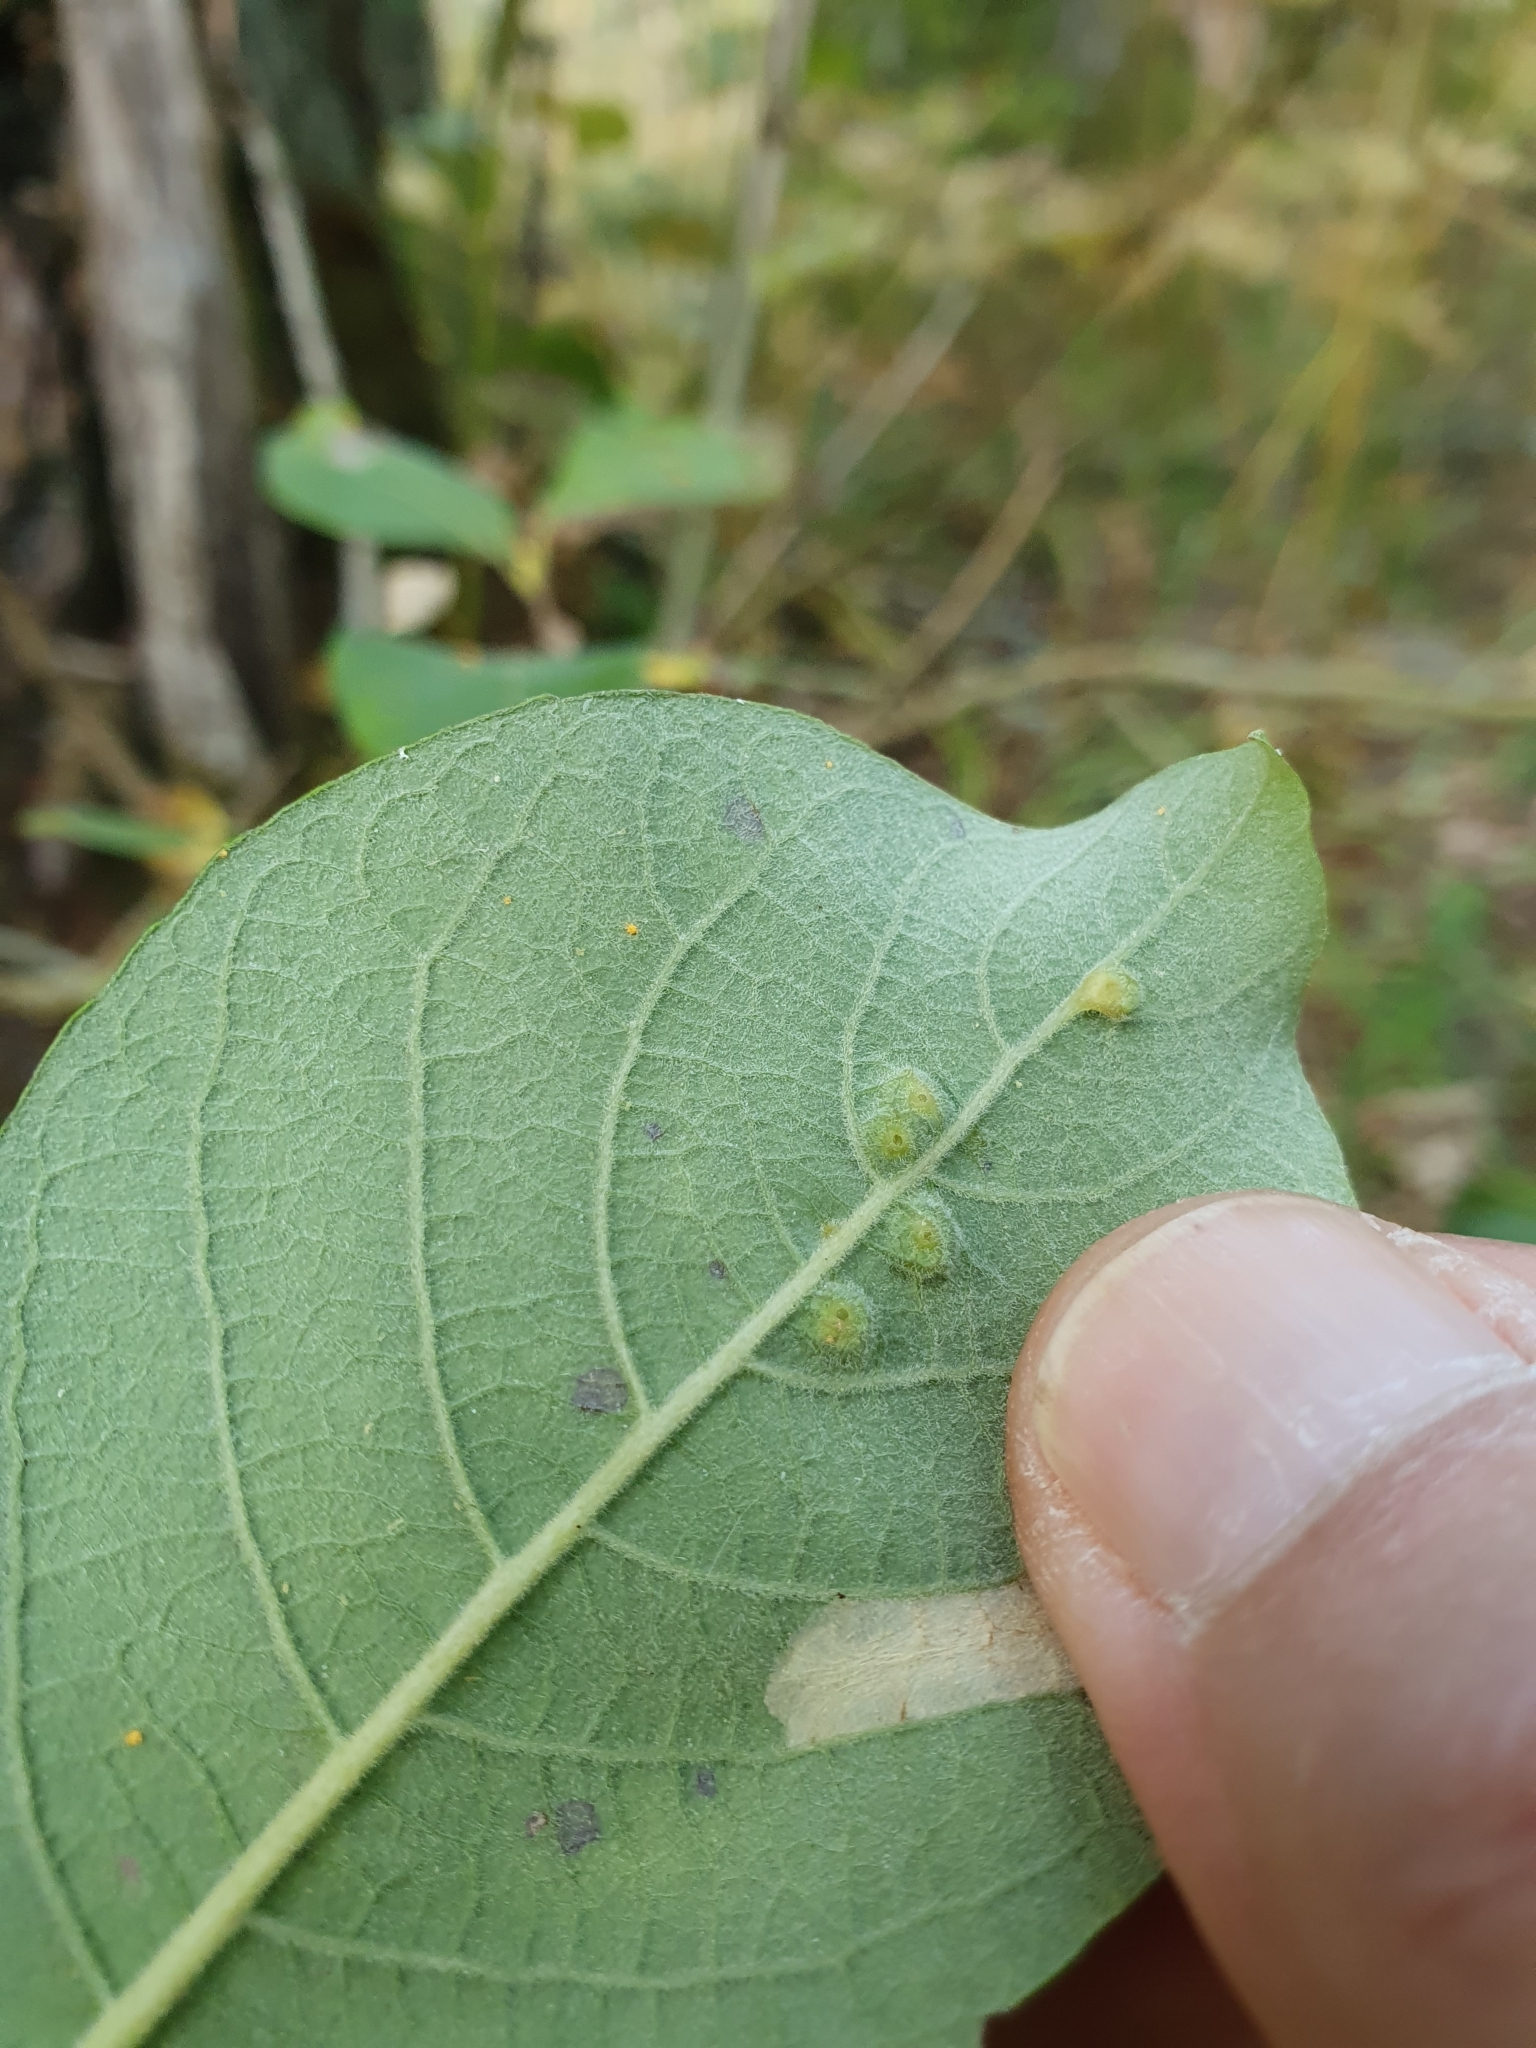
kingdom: Animalia
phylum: Arthropoda
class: Insecta
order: Diptera
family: Cecidomyiidae
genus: Iteomyia
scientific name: Iteomyia capreae
